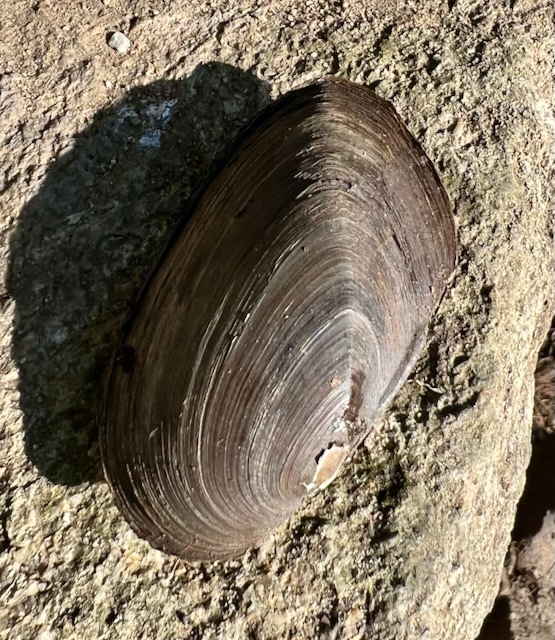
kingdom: Animalia
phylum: Mollusca
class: Bivalvia
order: Unionida
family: Unionidae
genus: Elliptio
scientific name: Elliptio complanata
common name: Eastern elliptio
